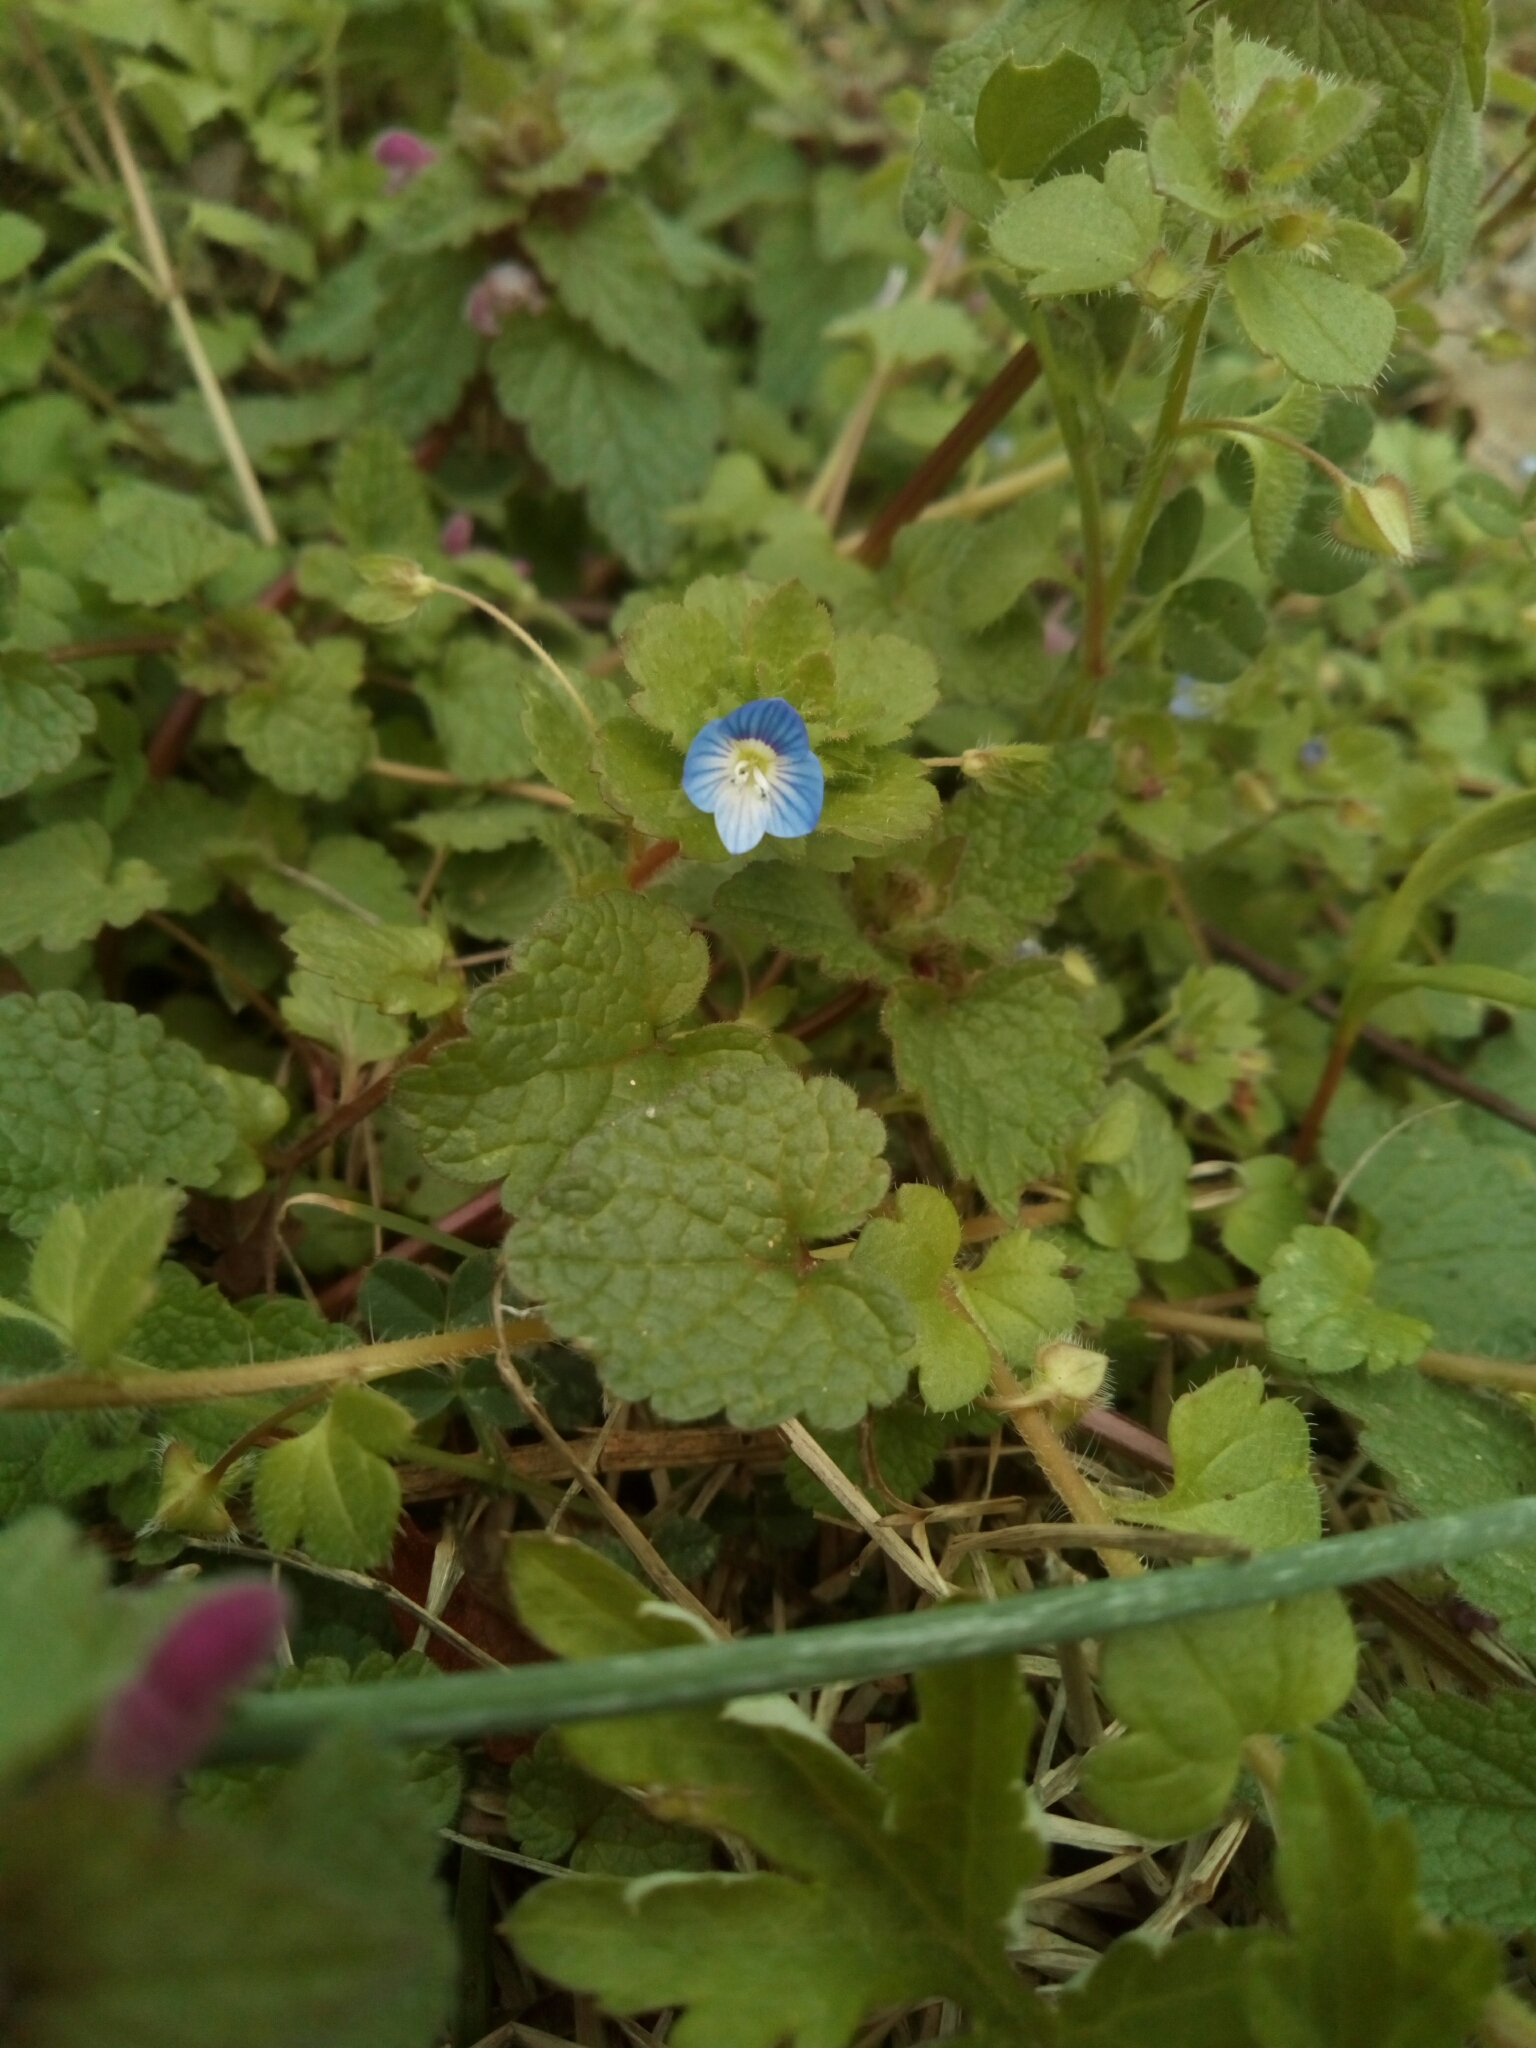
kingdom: Plantae
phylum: Tracheophyta
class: Magnoliopsida
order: Lamiales
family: Plantaginaceae
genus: Veronica
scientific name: Veronica persica
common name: Common field-speedwell
